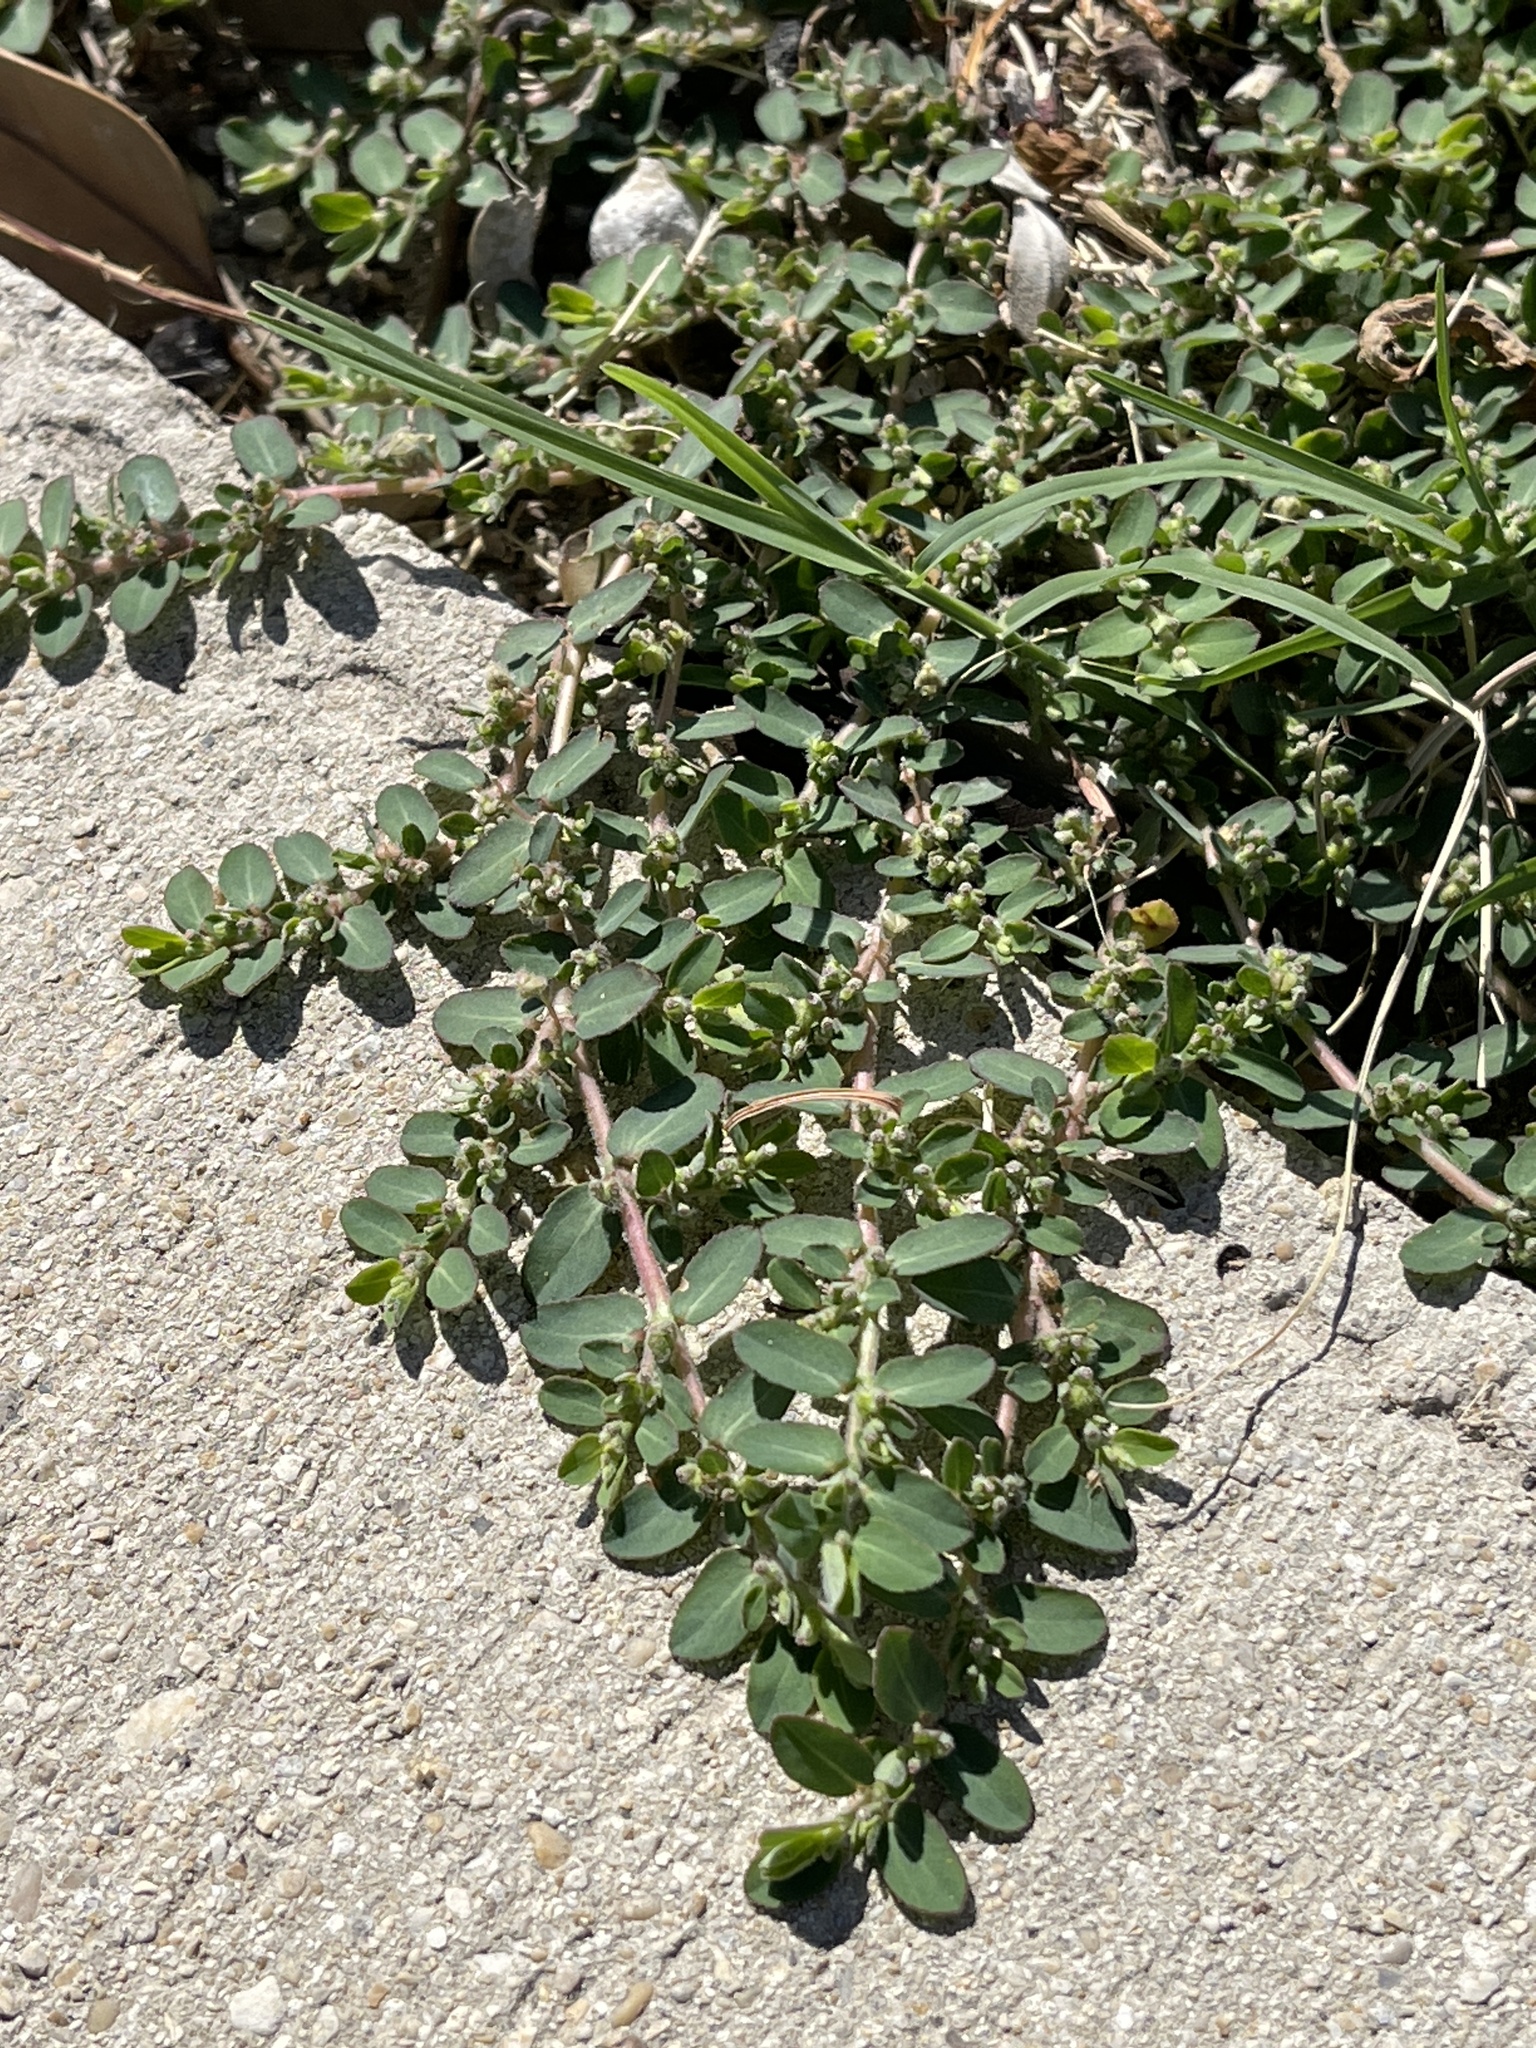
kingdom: Plantae
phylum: Tracheophyta
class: Magnoliopsida
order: Malpighiales
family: Euphorbiaceae
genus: Euphorbia
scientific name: Euphorbia prostrata
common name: Prostrate sandmat
